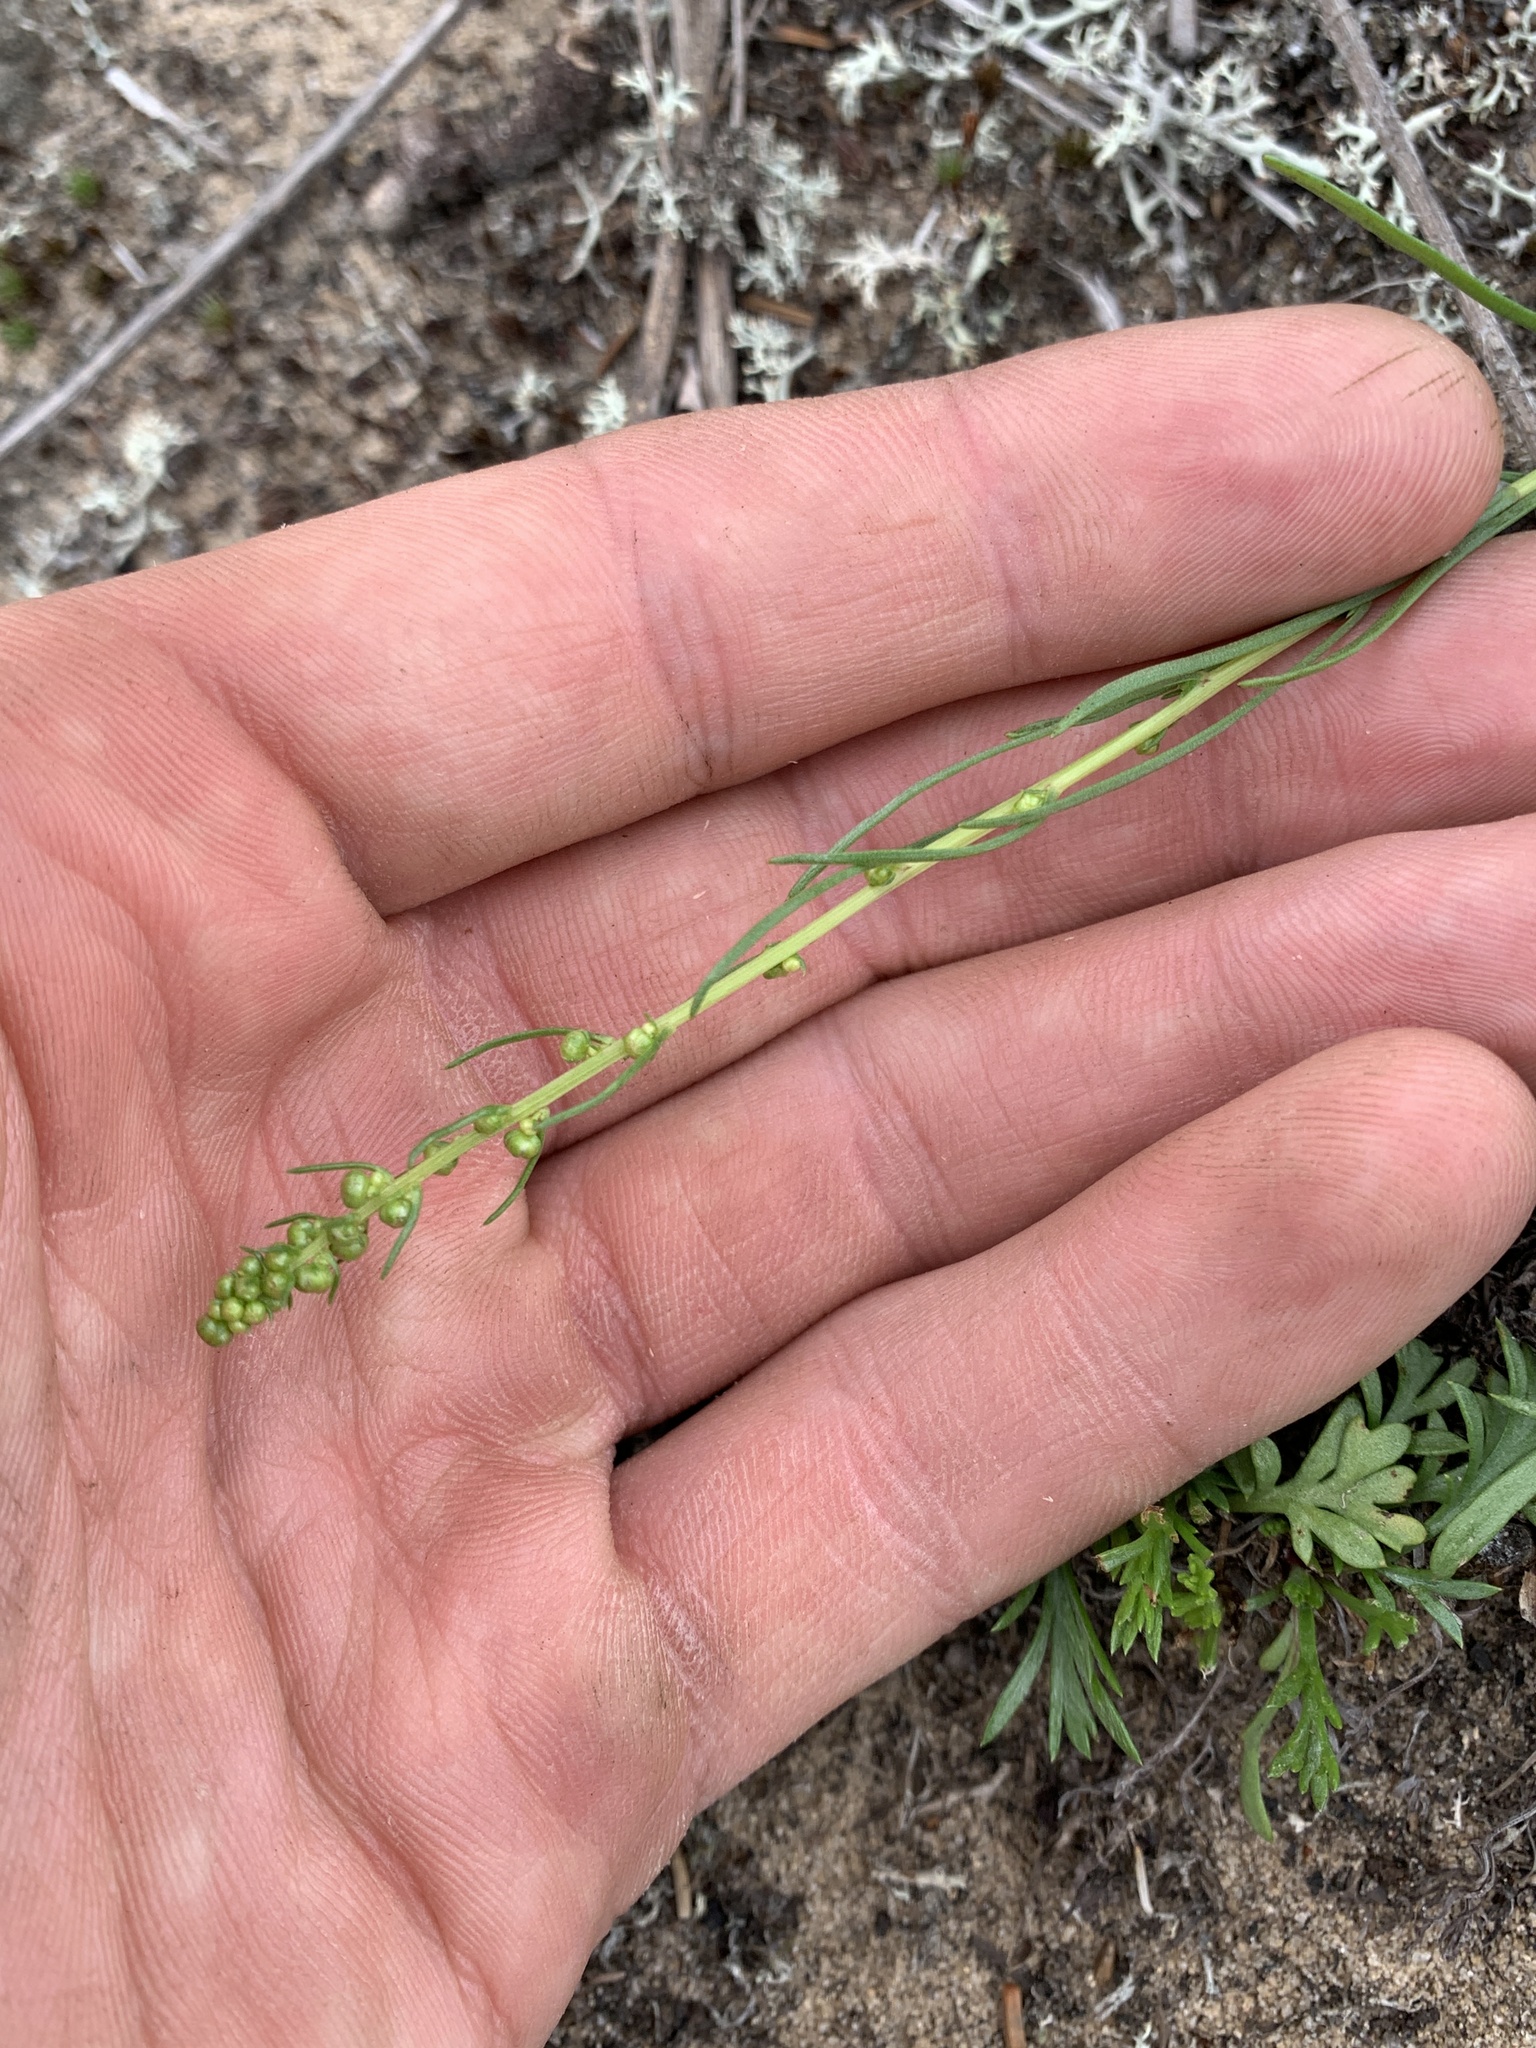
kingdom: Plantae
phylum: Tracheophyta
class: Magnoliopsida
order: Asterales
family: Asteraceae
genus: Artemisia
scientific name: Artemisia campestris
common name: Field wormwood
